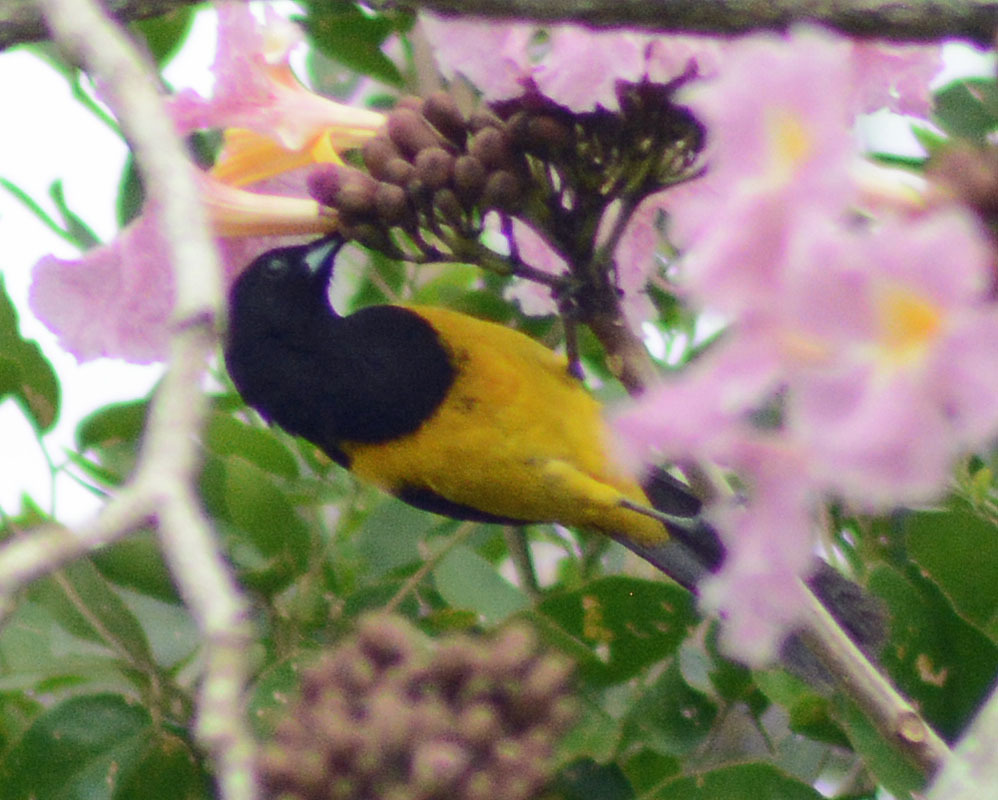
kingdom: Animalia
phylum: Chordata
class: Aves
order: Passeriformes
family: Icteridae
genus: Icterus
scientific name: Icterus prosthemelas
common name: Black-cowled oriole
